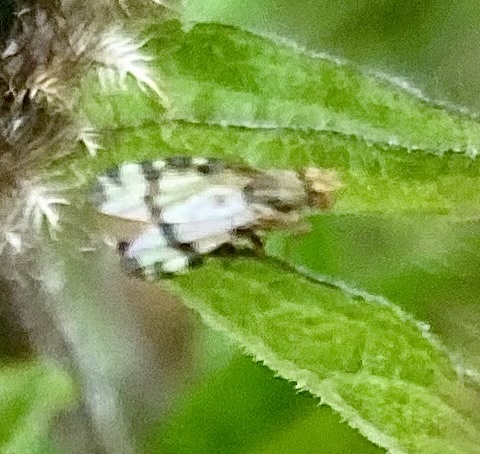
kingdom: Animalia
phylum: Arthropoda
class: Insecta
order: Diptera
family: Tephritidae
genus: Sphenella
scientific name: Sphenella marginata
